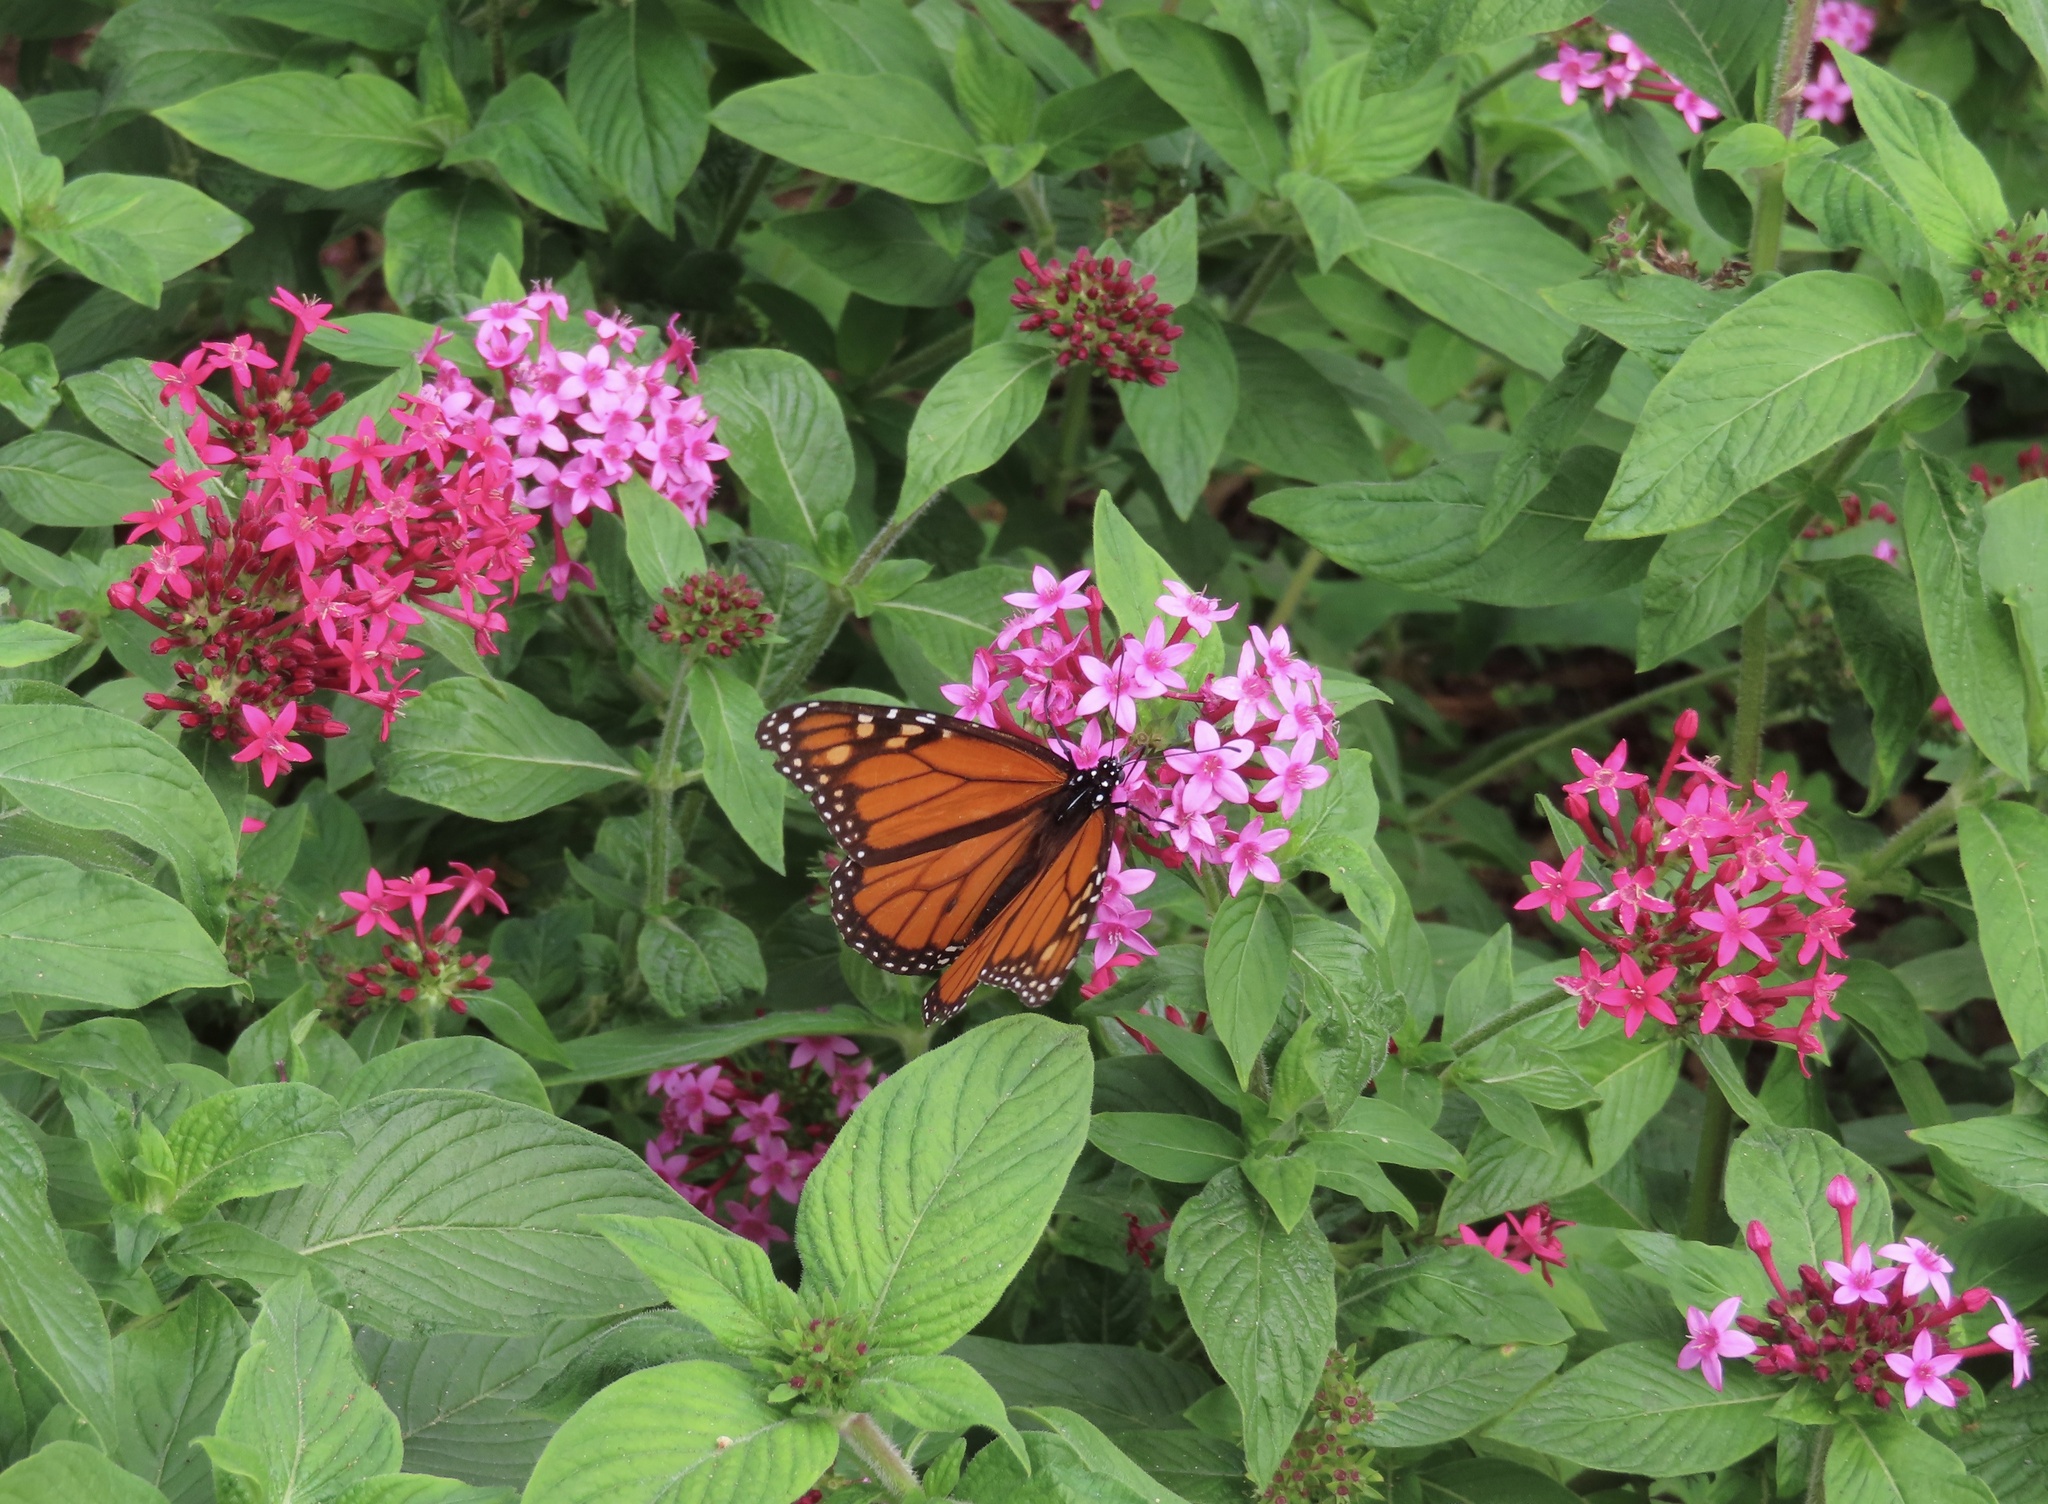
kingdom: Animalia
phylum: Arthropoda
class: Insecta
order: Lepidoptera
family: Nymphalidae
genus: Danaus
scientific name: Danaus plexippus
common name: Monarch
